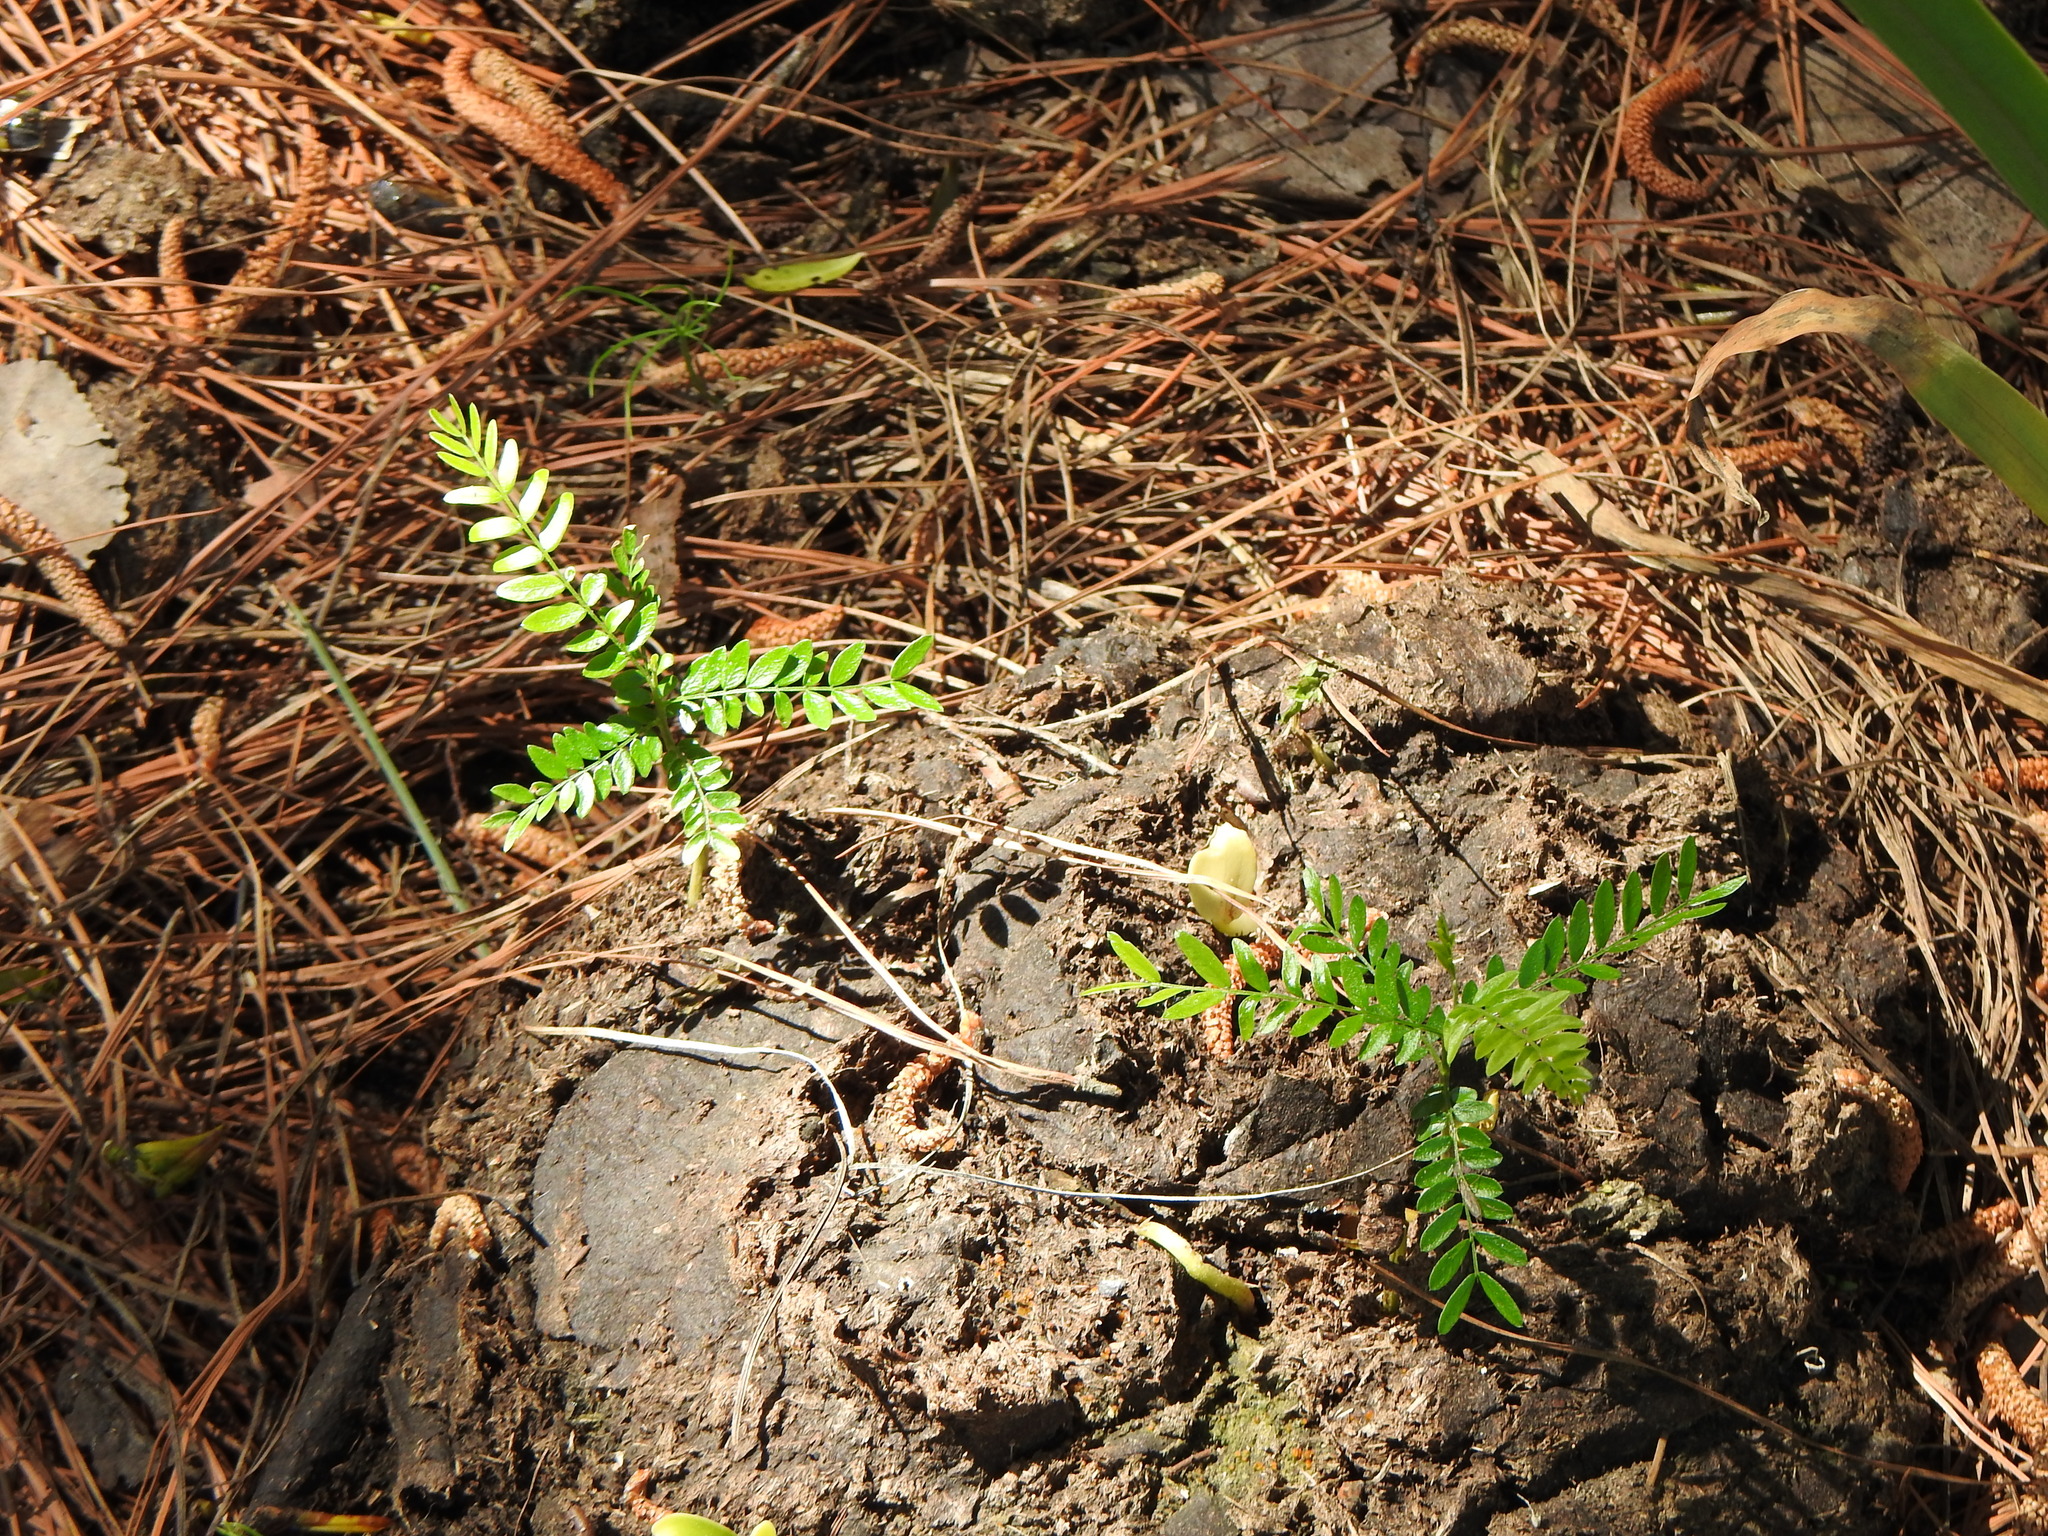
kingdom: Plantae
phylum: Tracheophyta
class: Magnoliopsida
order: Fabales
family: Fabaceae
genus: Gleditsia
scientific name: Gleditsia triacanthos
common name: Common honeylocust
